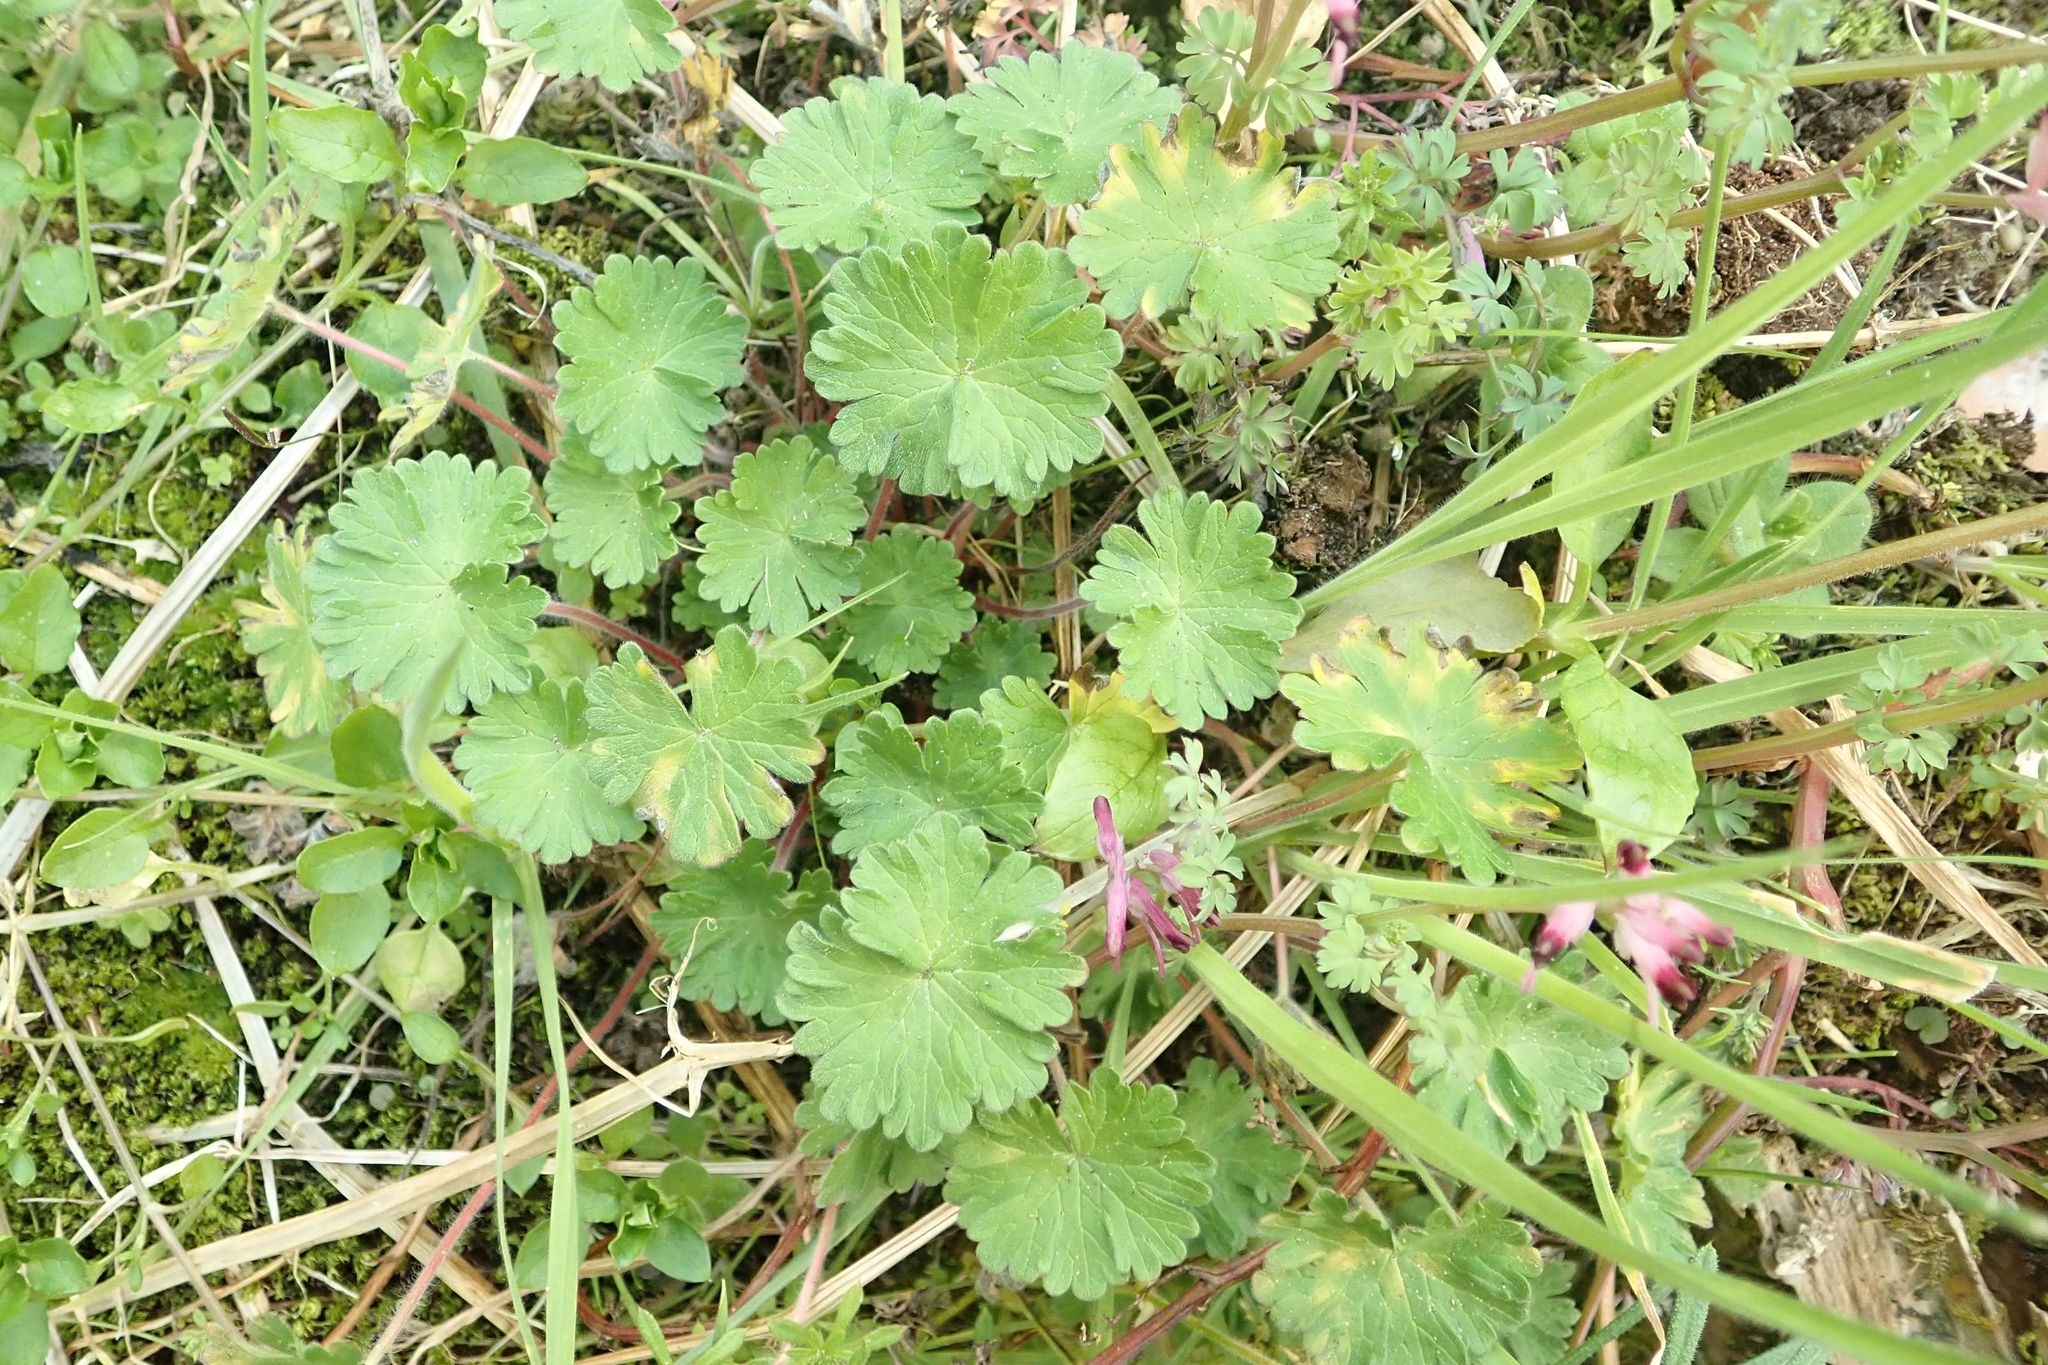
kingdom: Plantae
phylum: Tracheophyta
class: Magnoliopsida
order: Geraniales
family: Geraniaceae
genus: Geranium
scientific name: Geranium molle
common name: Dove's-foot crane's-bill
